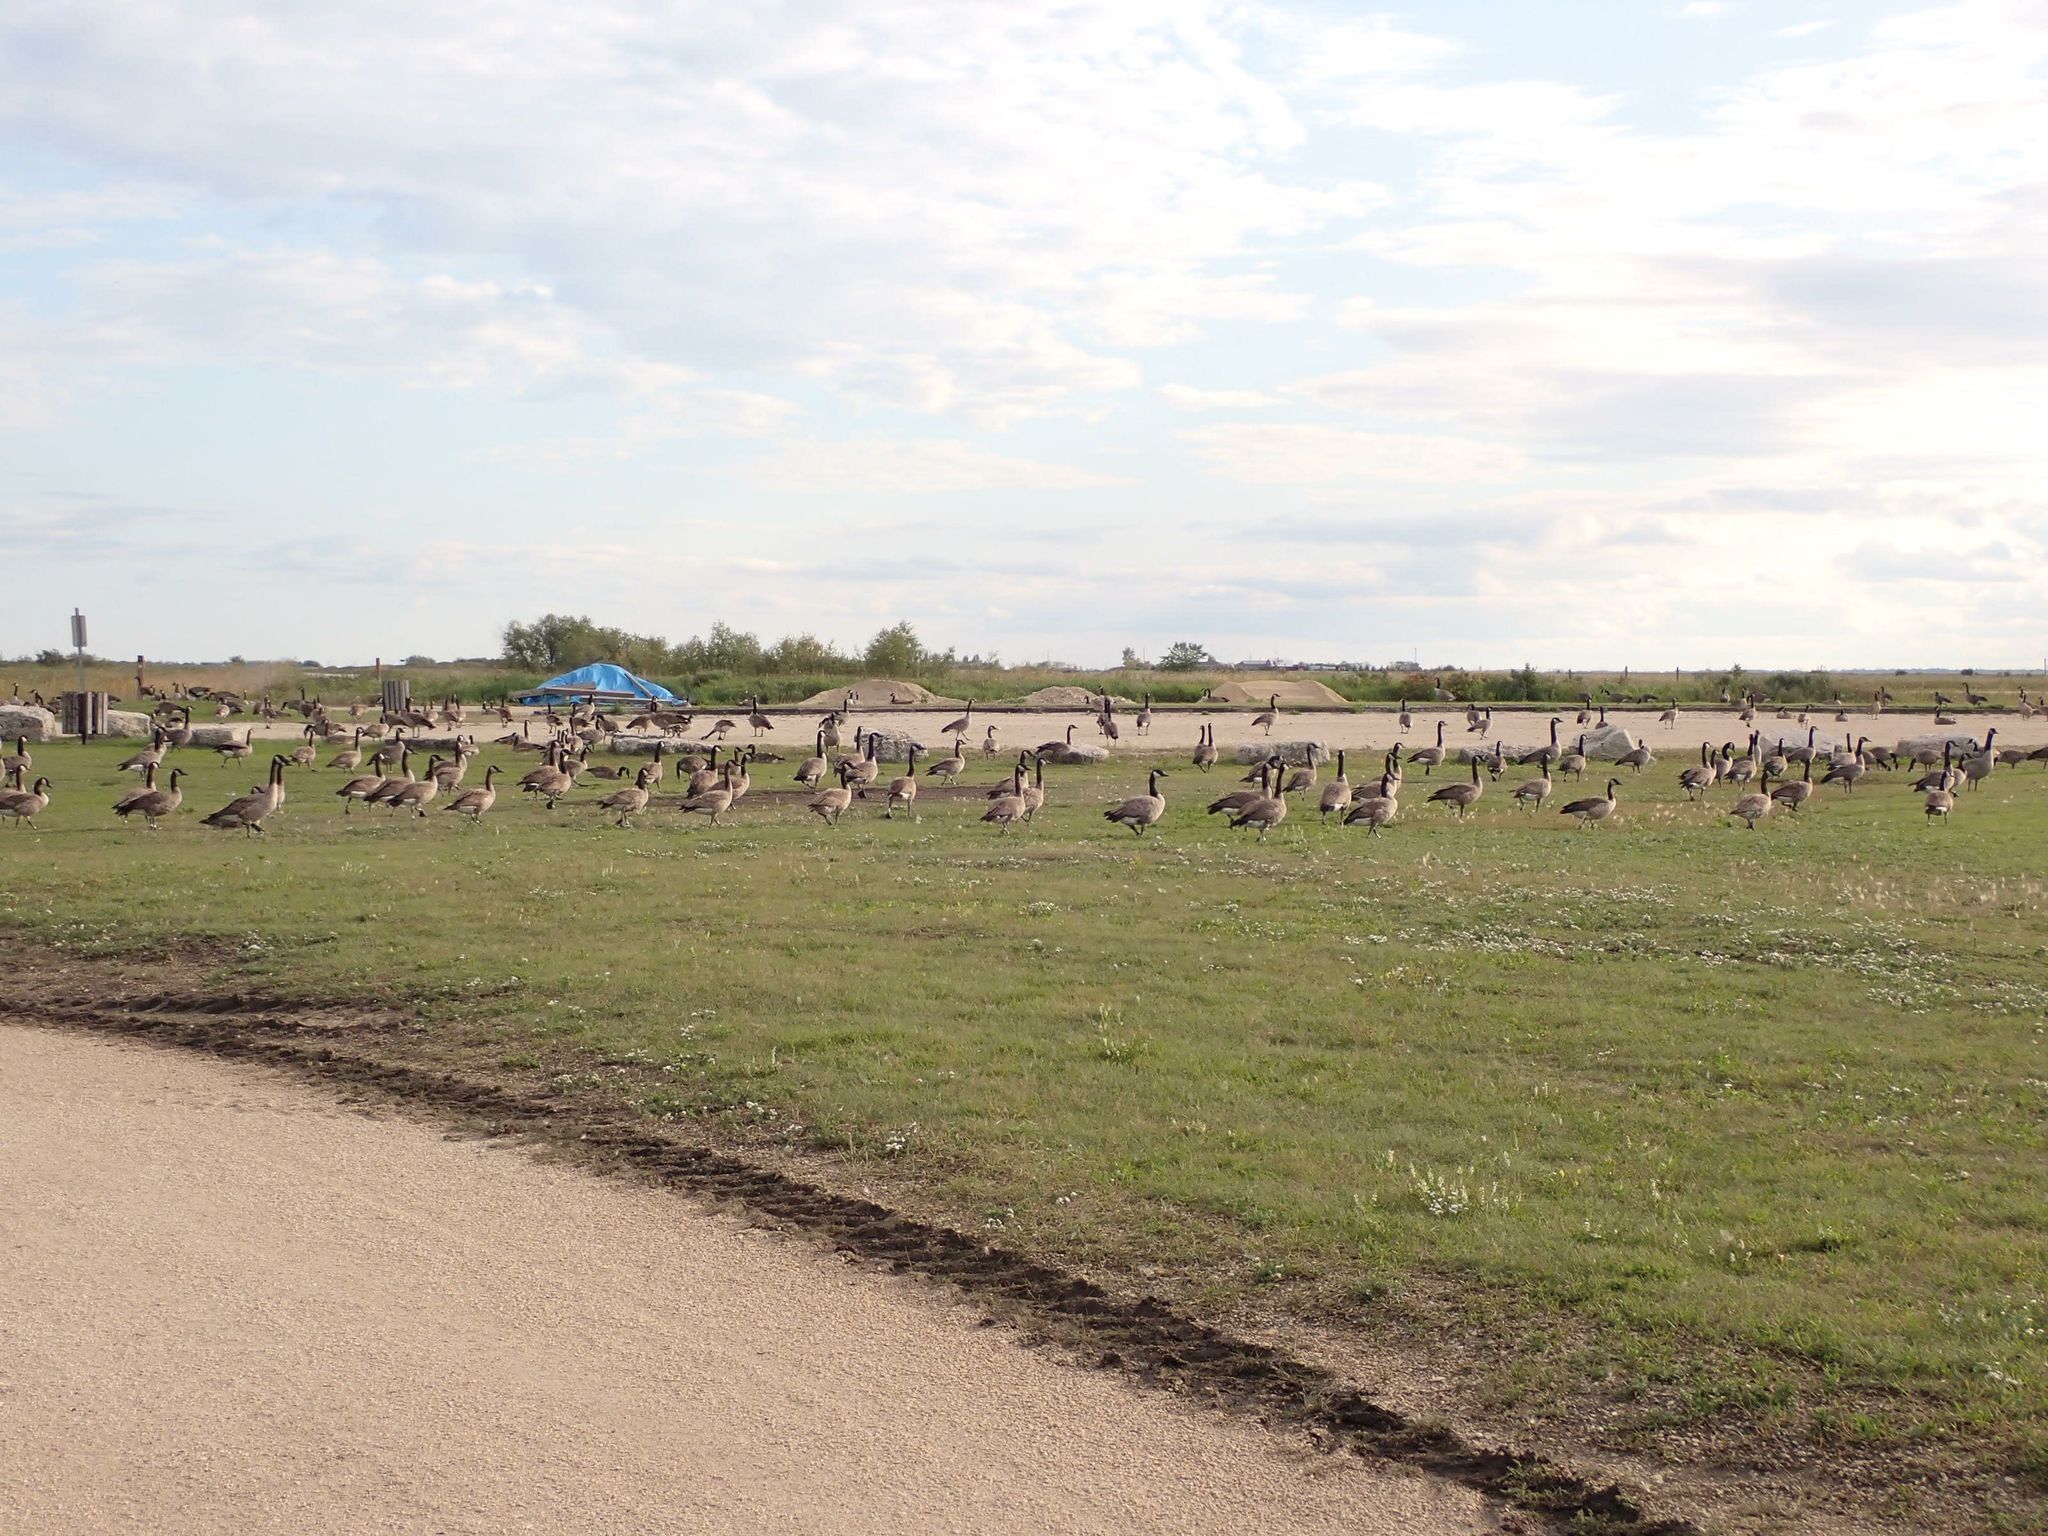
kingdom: Animalia
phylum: Chordata
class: Aves
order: Anseriformes
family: Anatidae
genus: Branta
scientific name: Branta canadensis
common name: Canada goose
